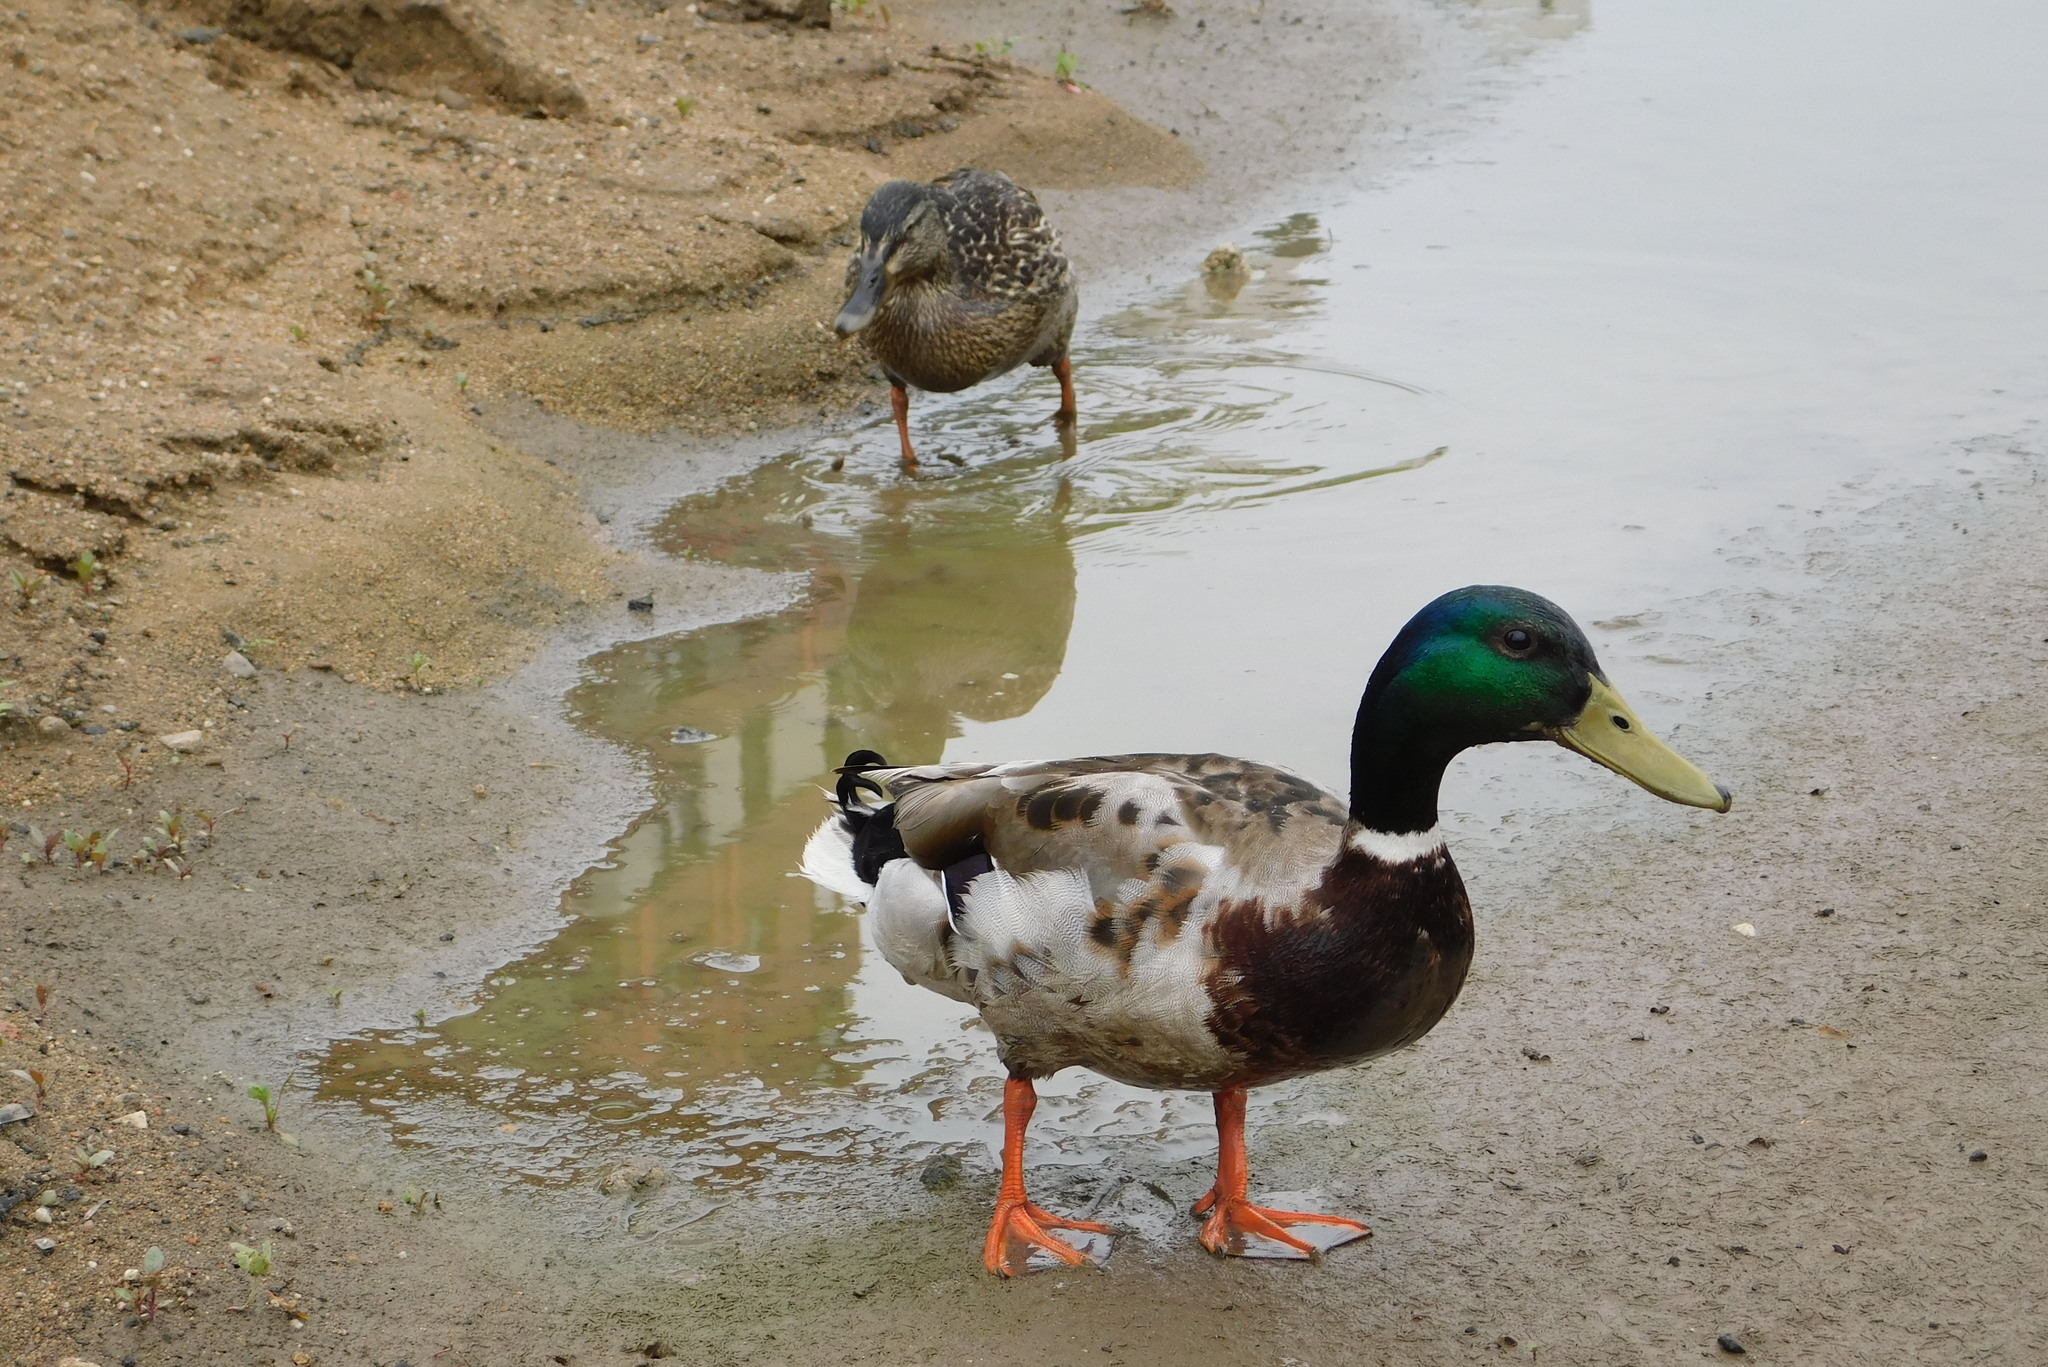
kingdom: Animalia
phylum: Chordata
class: Aves
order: Anseriformes
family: Anatidae
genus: Anas
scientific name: Anas platyrhynchos
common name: Mallard
